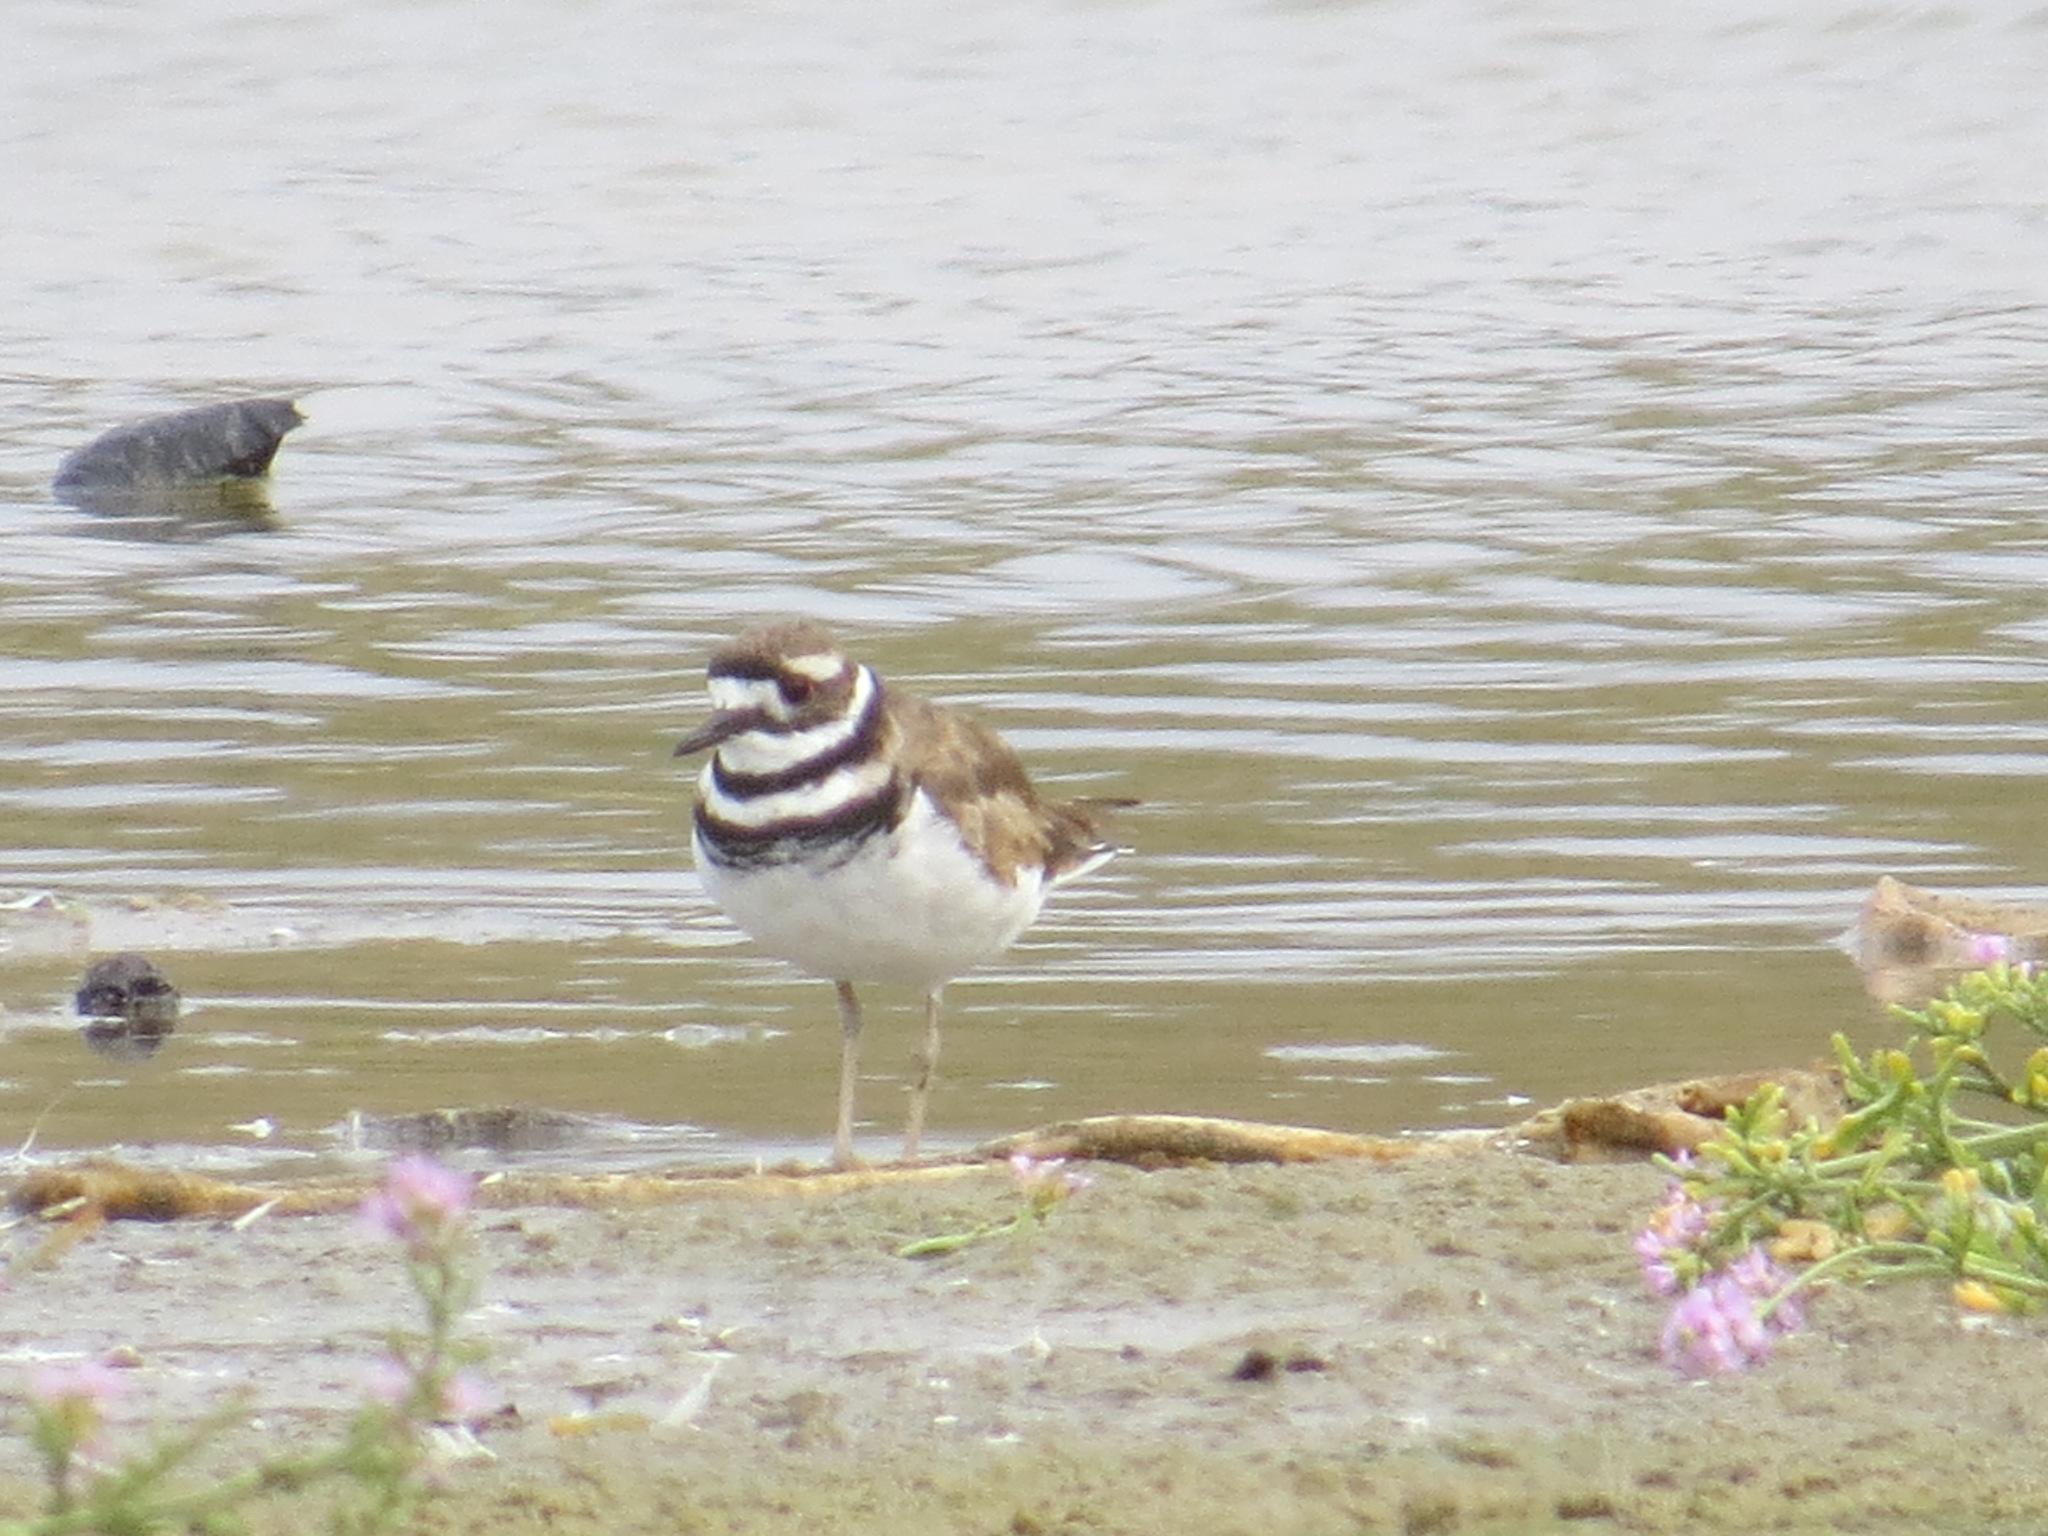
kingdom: Animalia
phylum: Chordata
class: Aves
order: Charadriiformes
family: Charadriidae
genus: Charadrius
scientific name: Charadrius vociferus
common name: Killdeer
